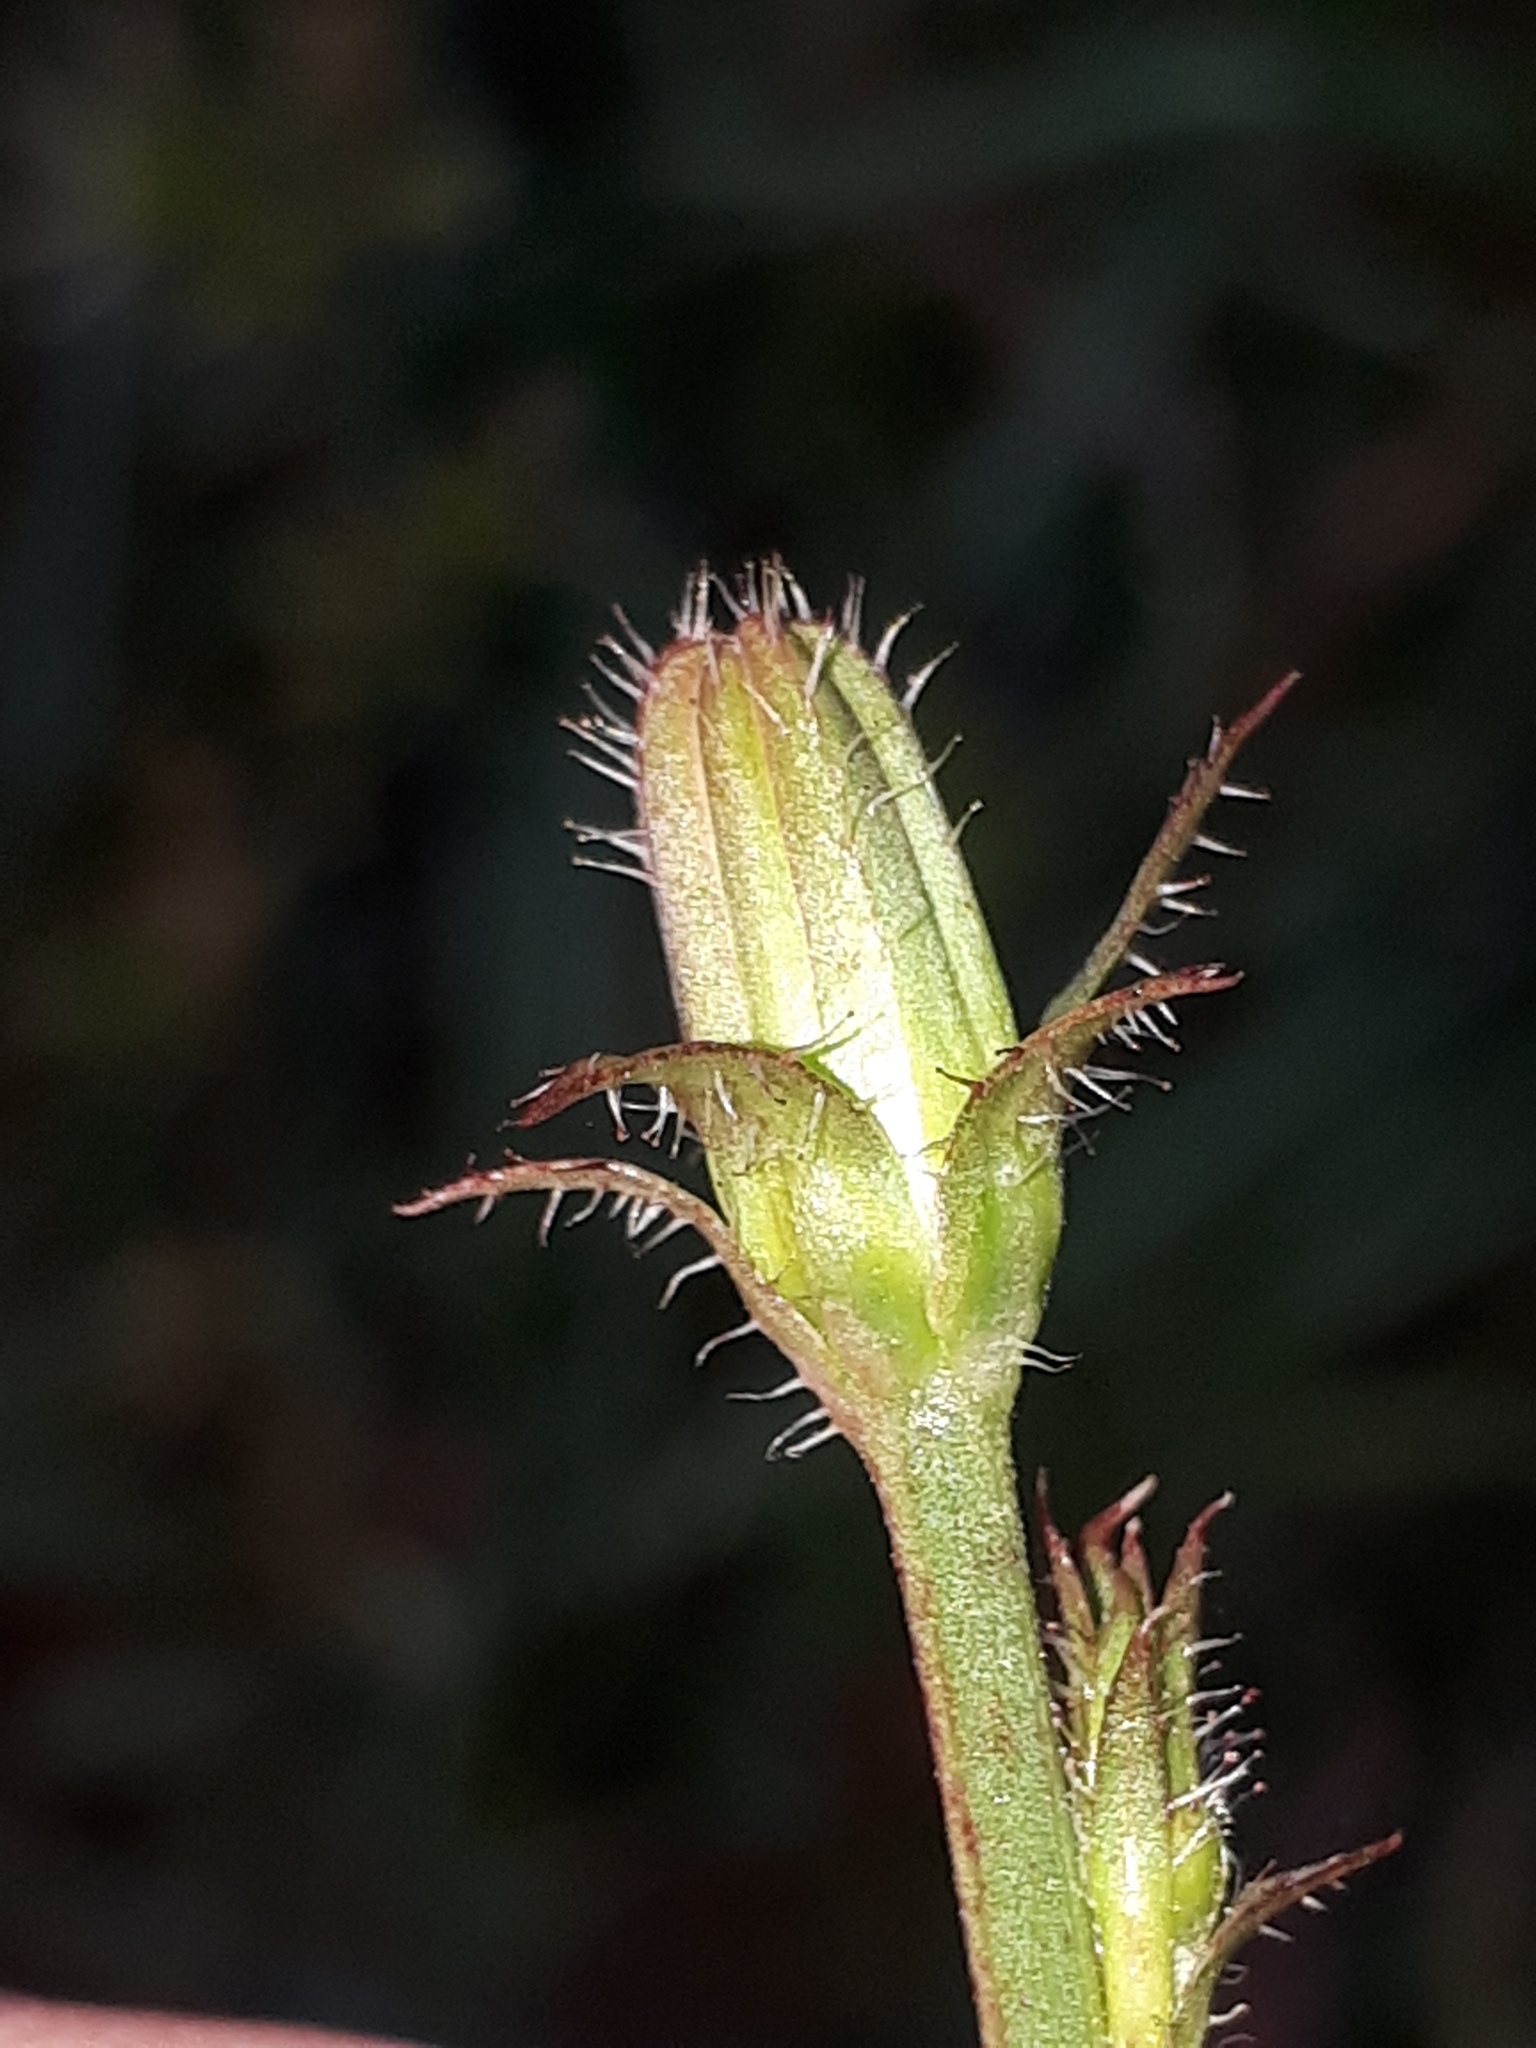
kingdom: Plantae
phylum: Tracheophyta
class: Magnoliopsida
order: Asterales
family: Asteraceae
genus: Cichorium
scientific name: Cichorium intybus
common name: Chicory
